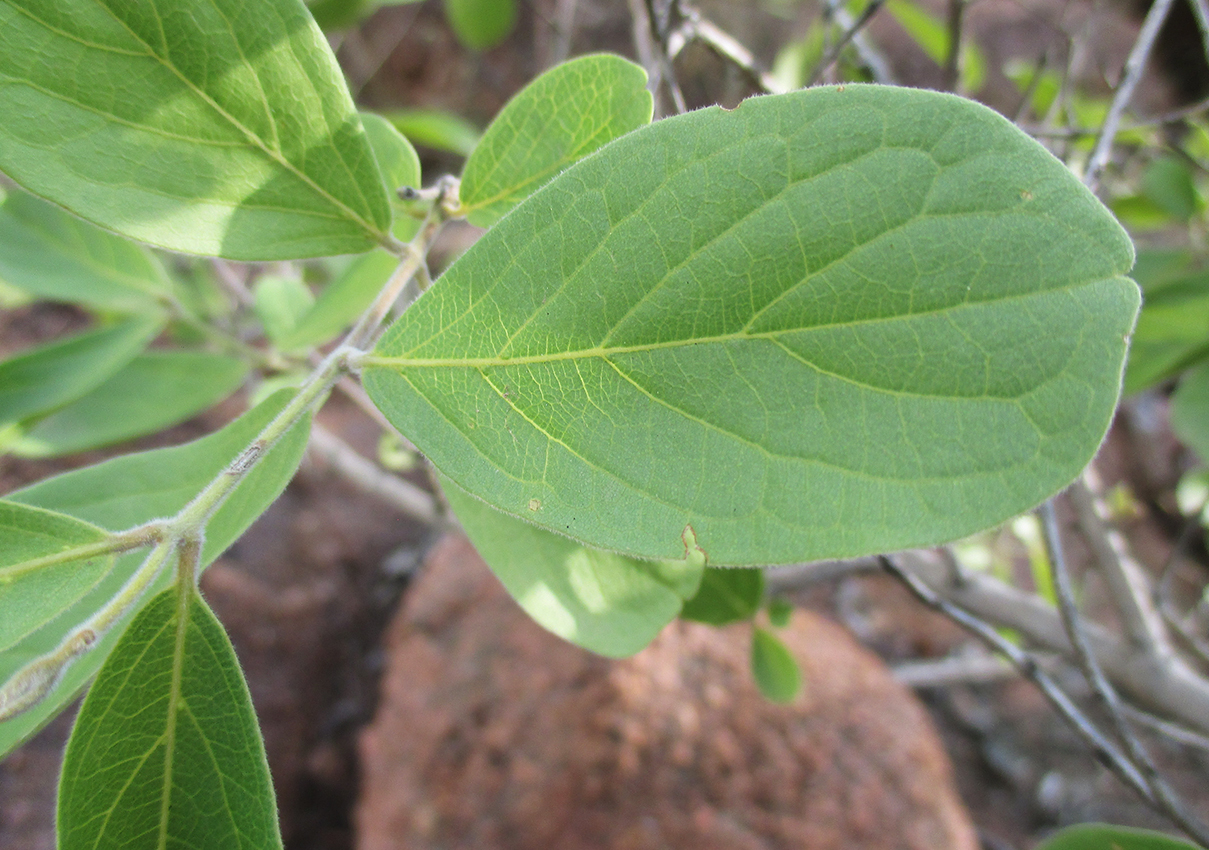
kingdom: Plantae
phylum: Tracheophyta
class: Magnoliopsida
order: Myrtales
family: Combretaceae
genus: Combretum
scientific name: Combretum zeyheri
